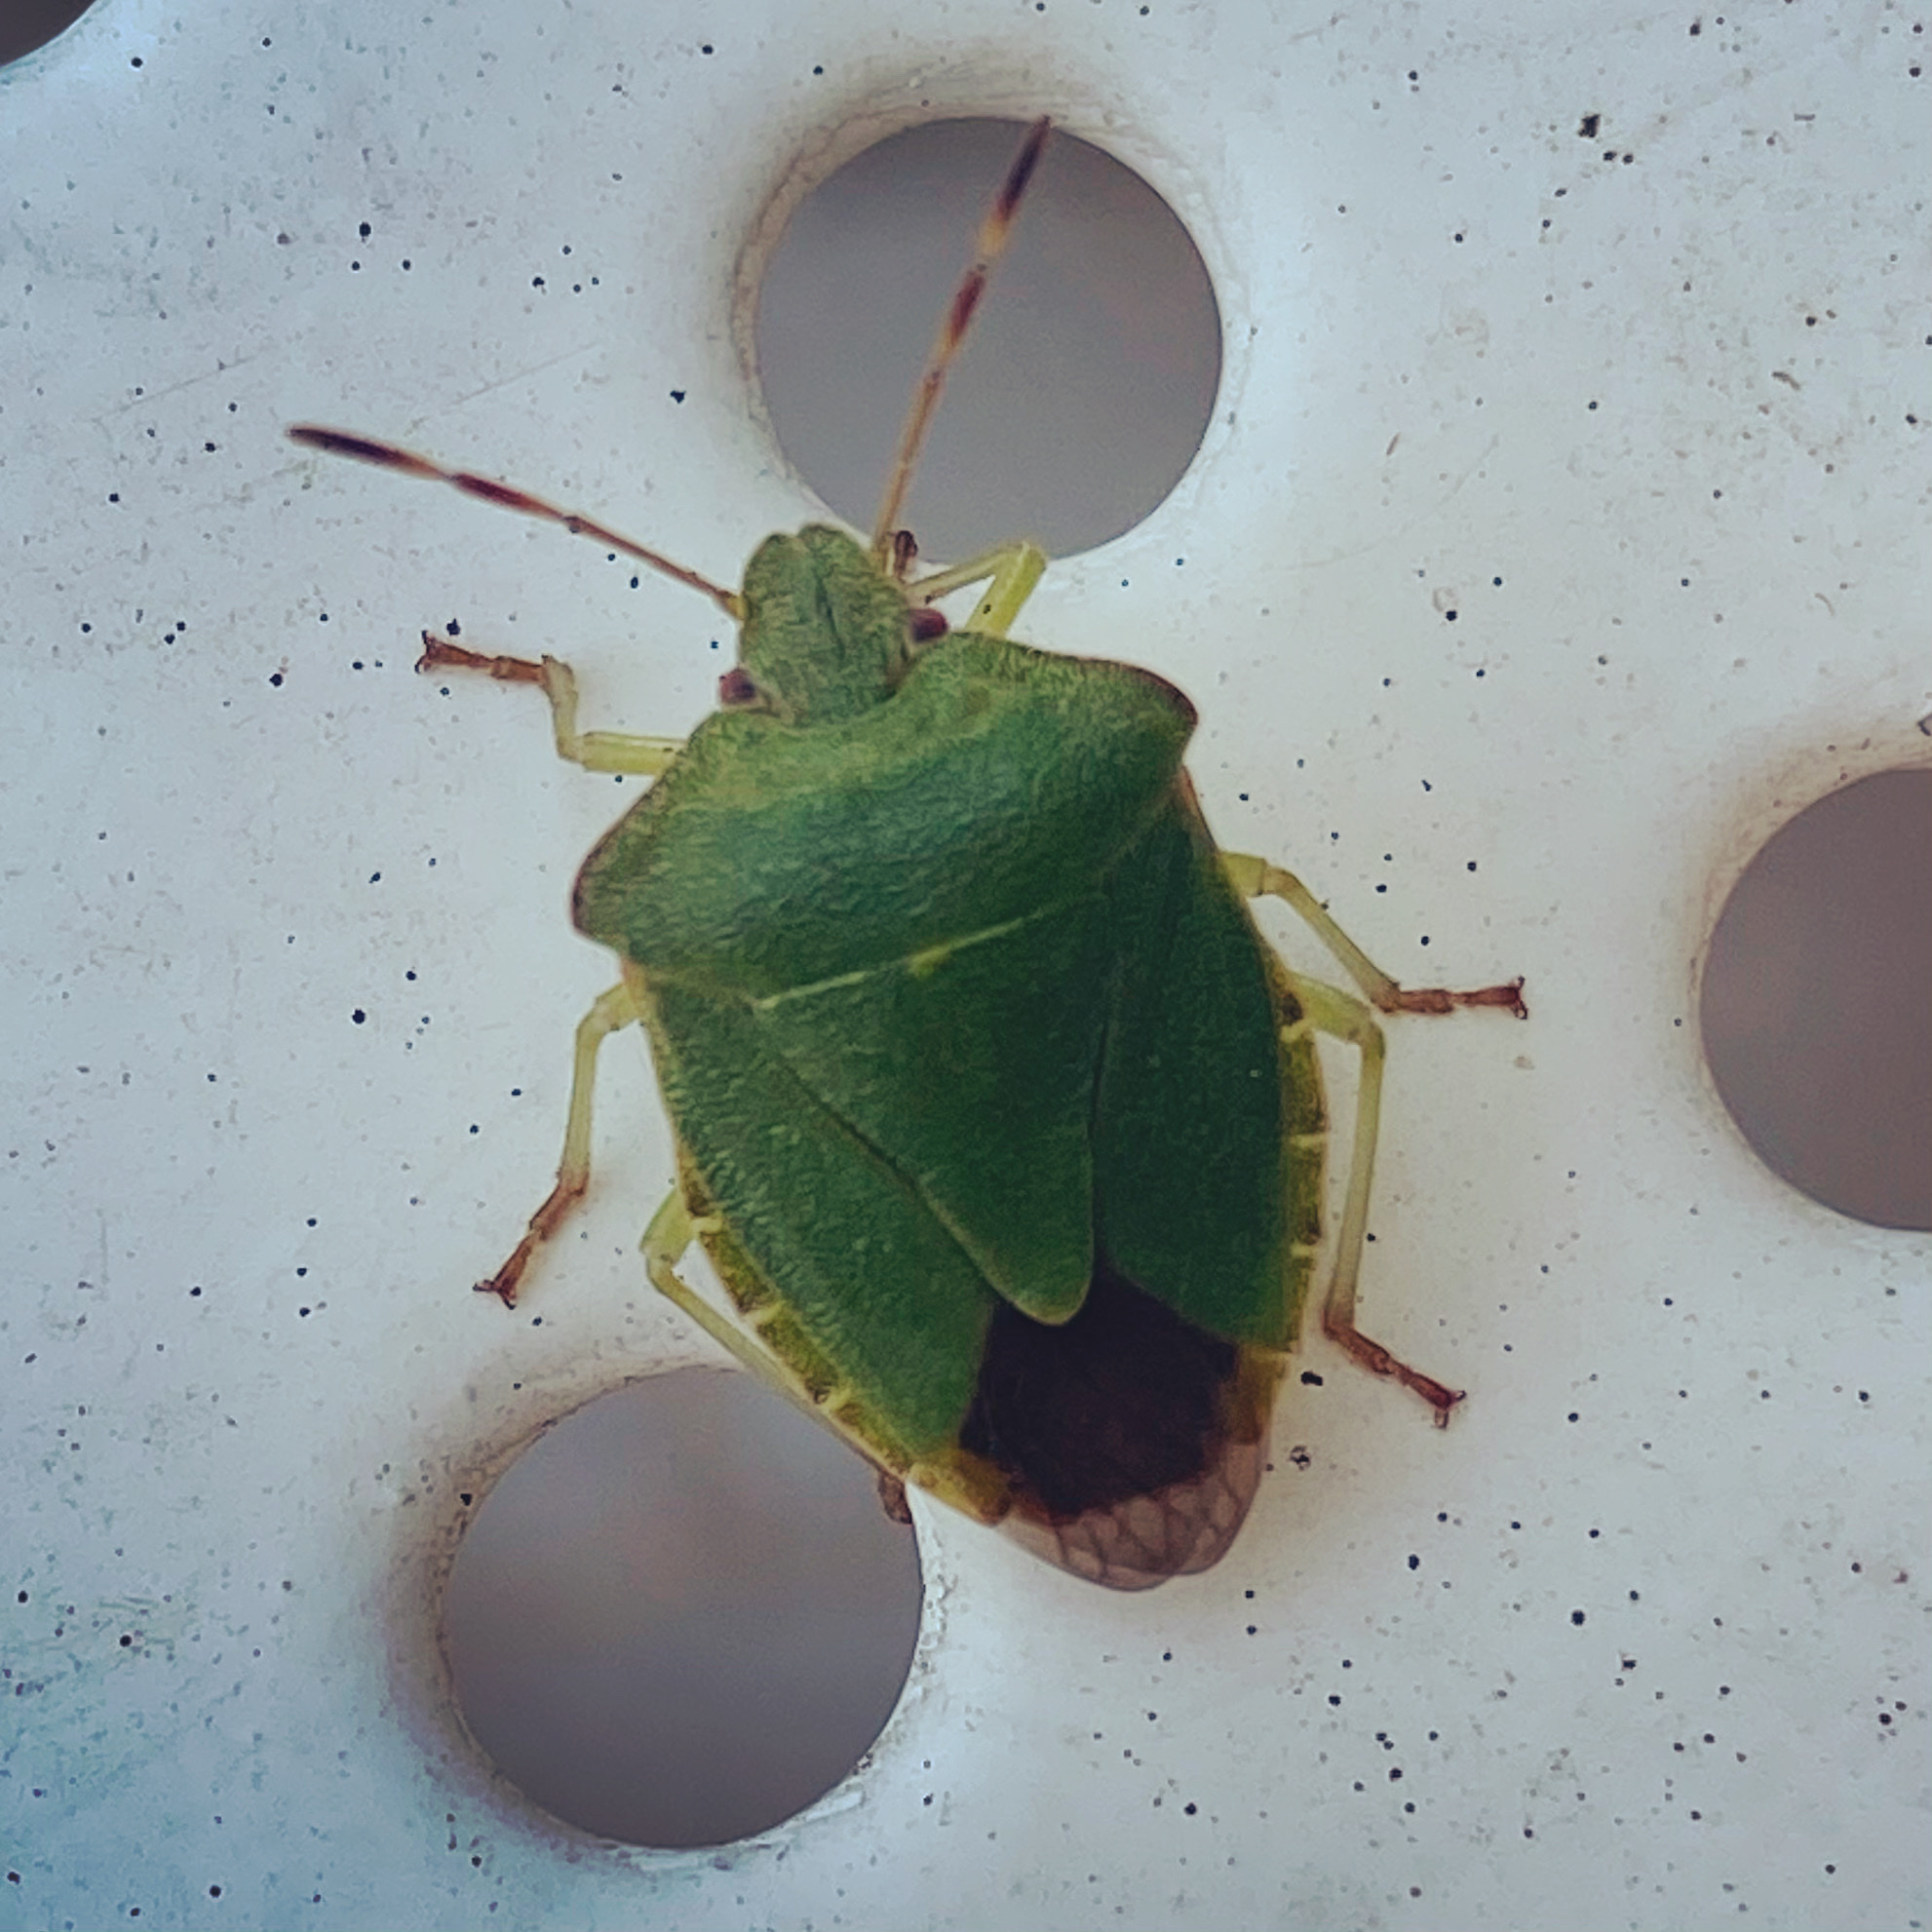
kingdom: Animalia
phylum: Arthropoda
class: Insecta
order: Hemiptera
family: Pentatomidae
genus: Palomena
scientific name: Palomena prasina
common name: Green shieldbug
